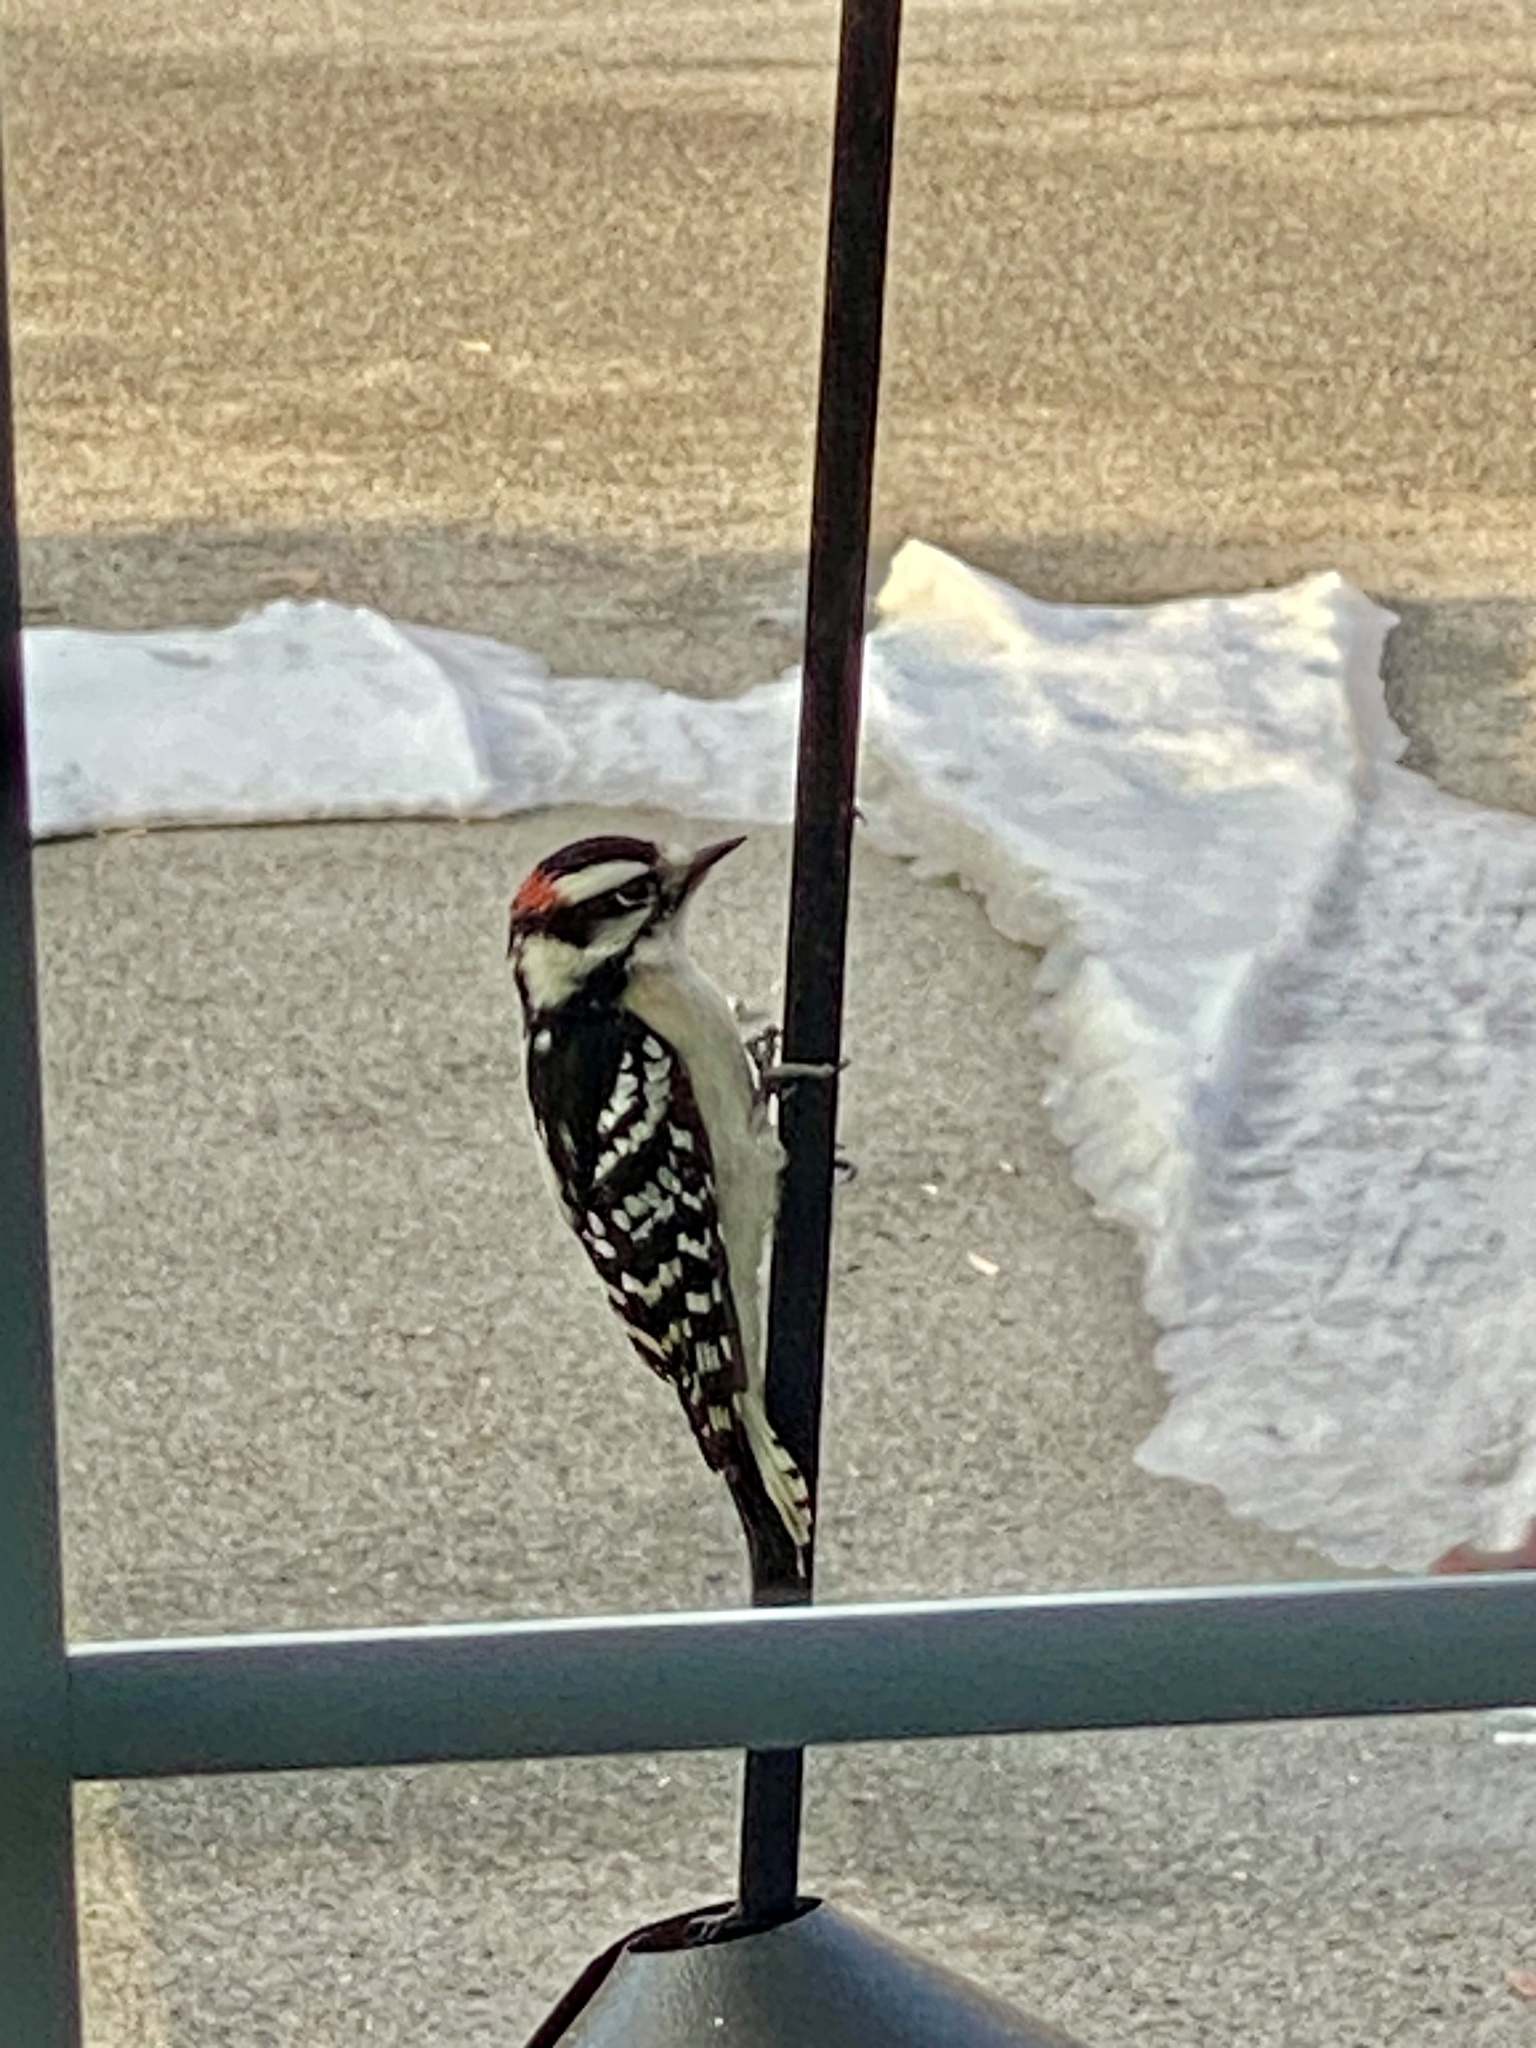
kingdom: Animalia
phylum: Chordata
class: Aves
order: Piciformes
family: Picidae
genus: Dryobates
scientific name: Dryobates pubescens
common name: Downy woodpecker
